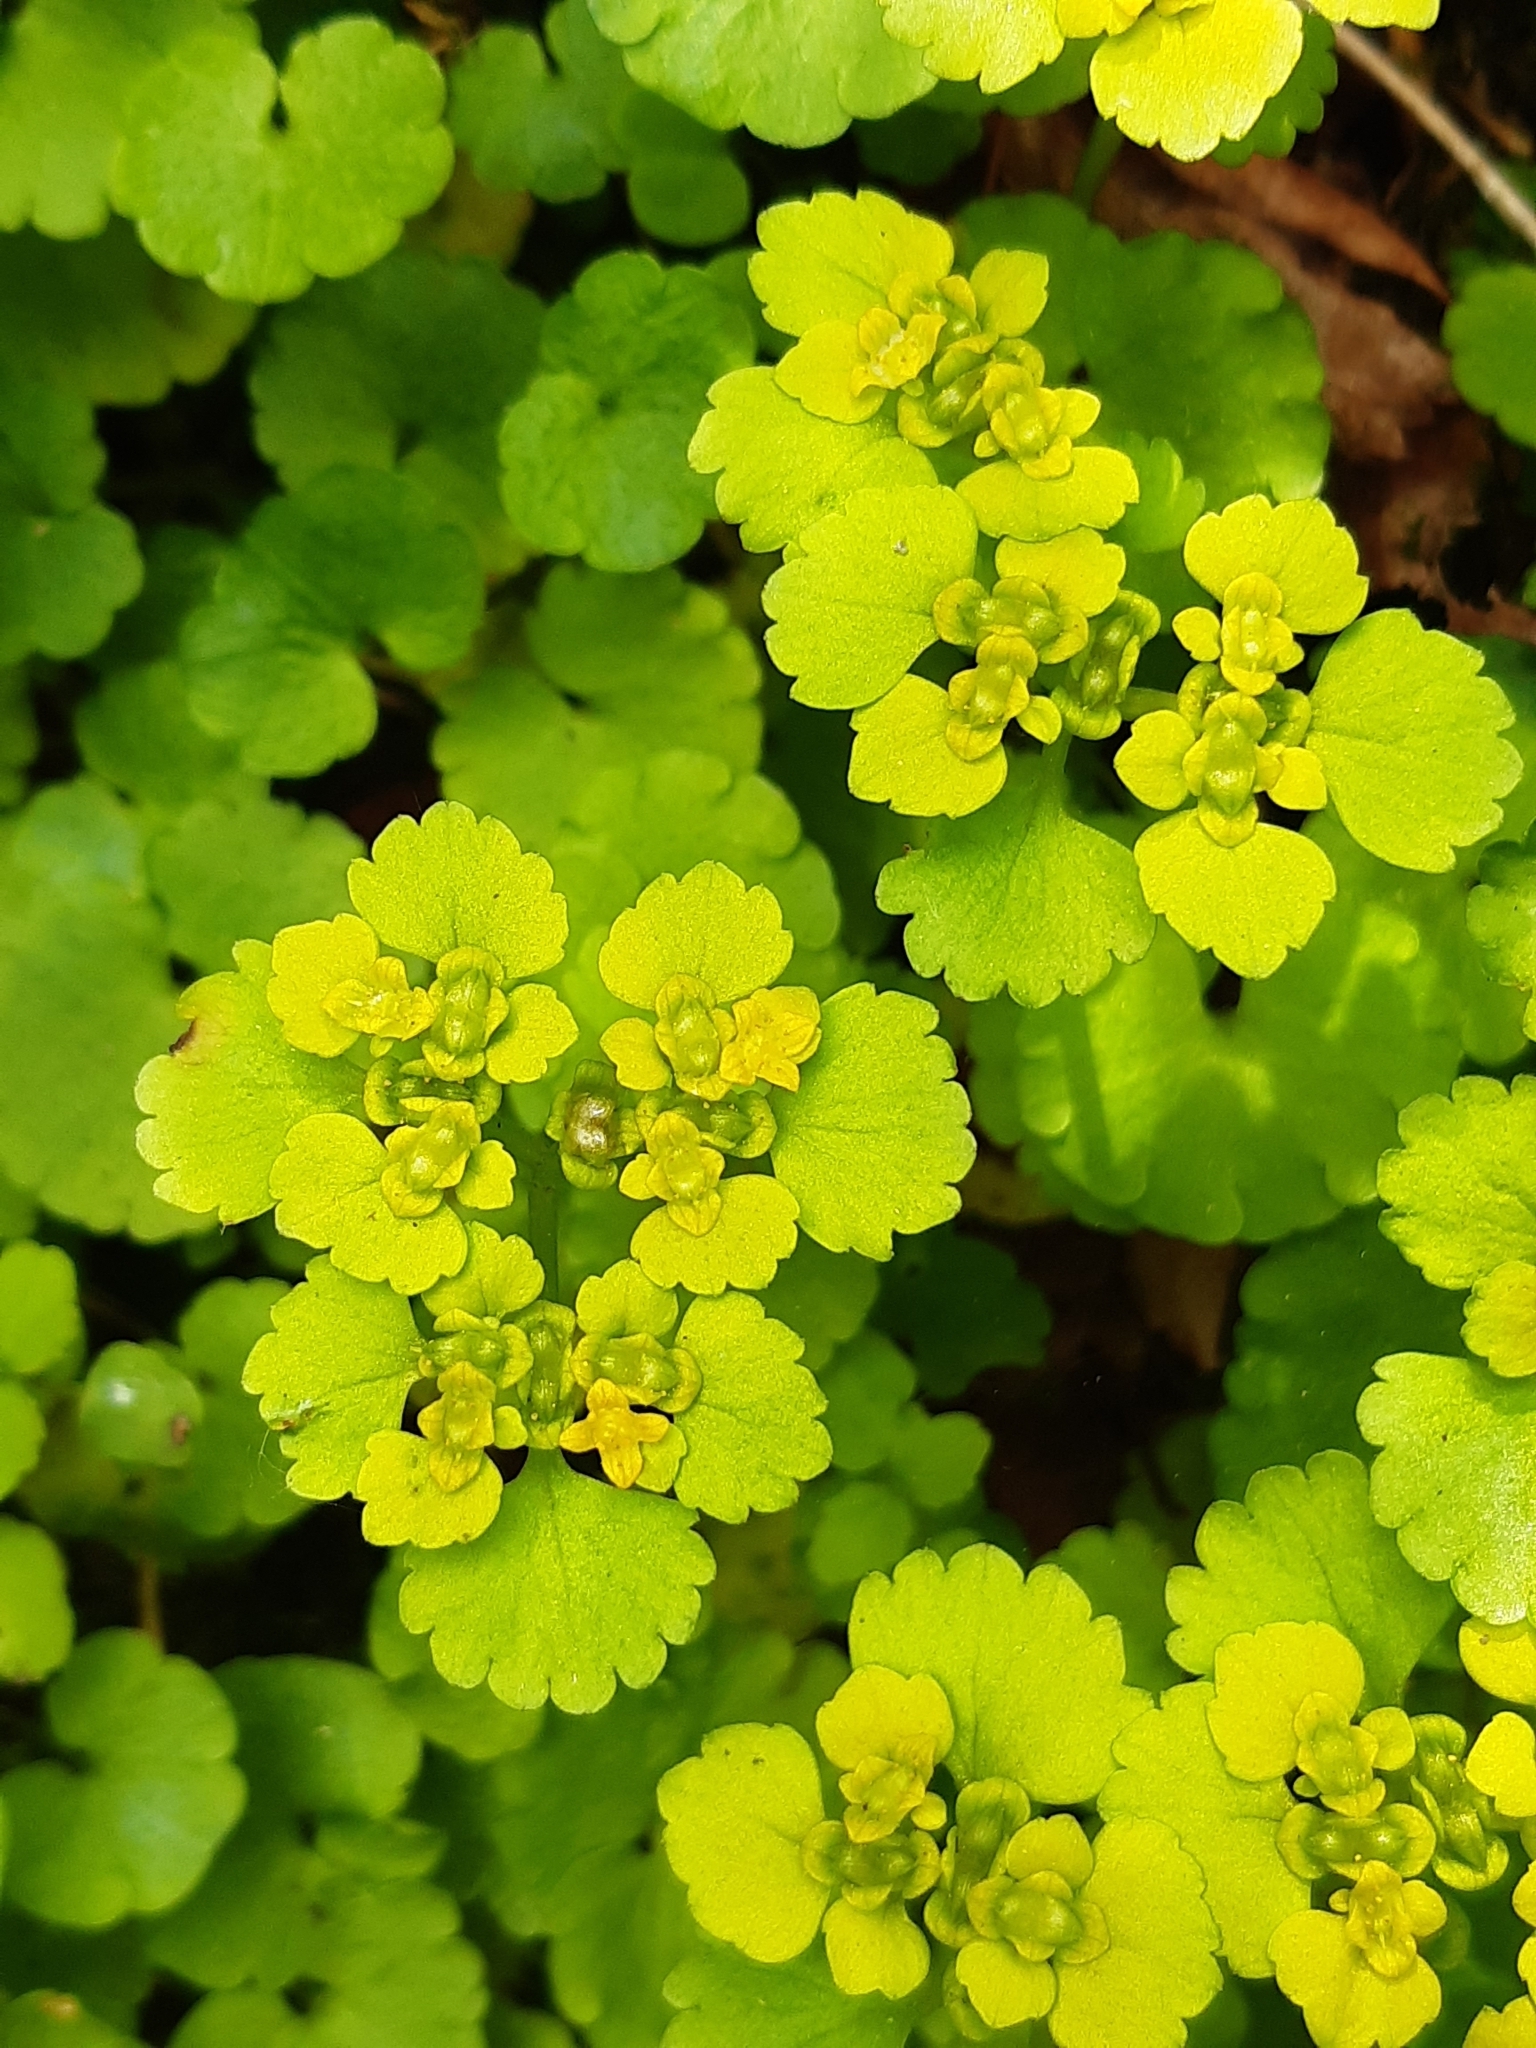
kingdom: Plantae
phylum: Tracheophyta
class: Magnoliopsida
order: Saxifragales
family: Saxifragaceae
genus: Chrysosplenium
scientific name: Chrysosplenium alternifolium
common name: Alternate-leaved golden-saxifrage
